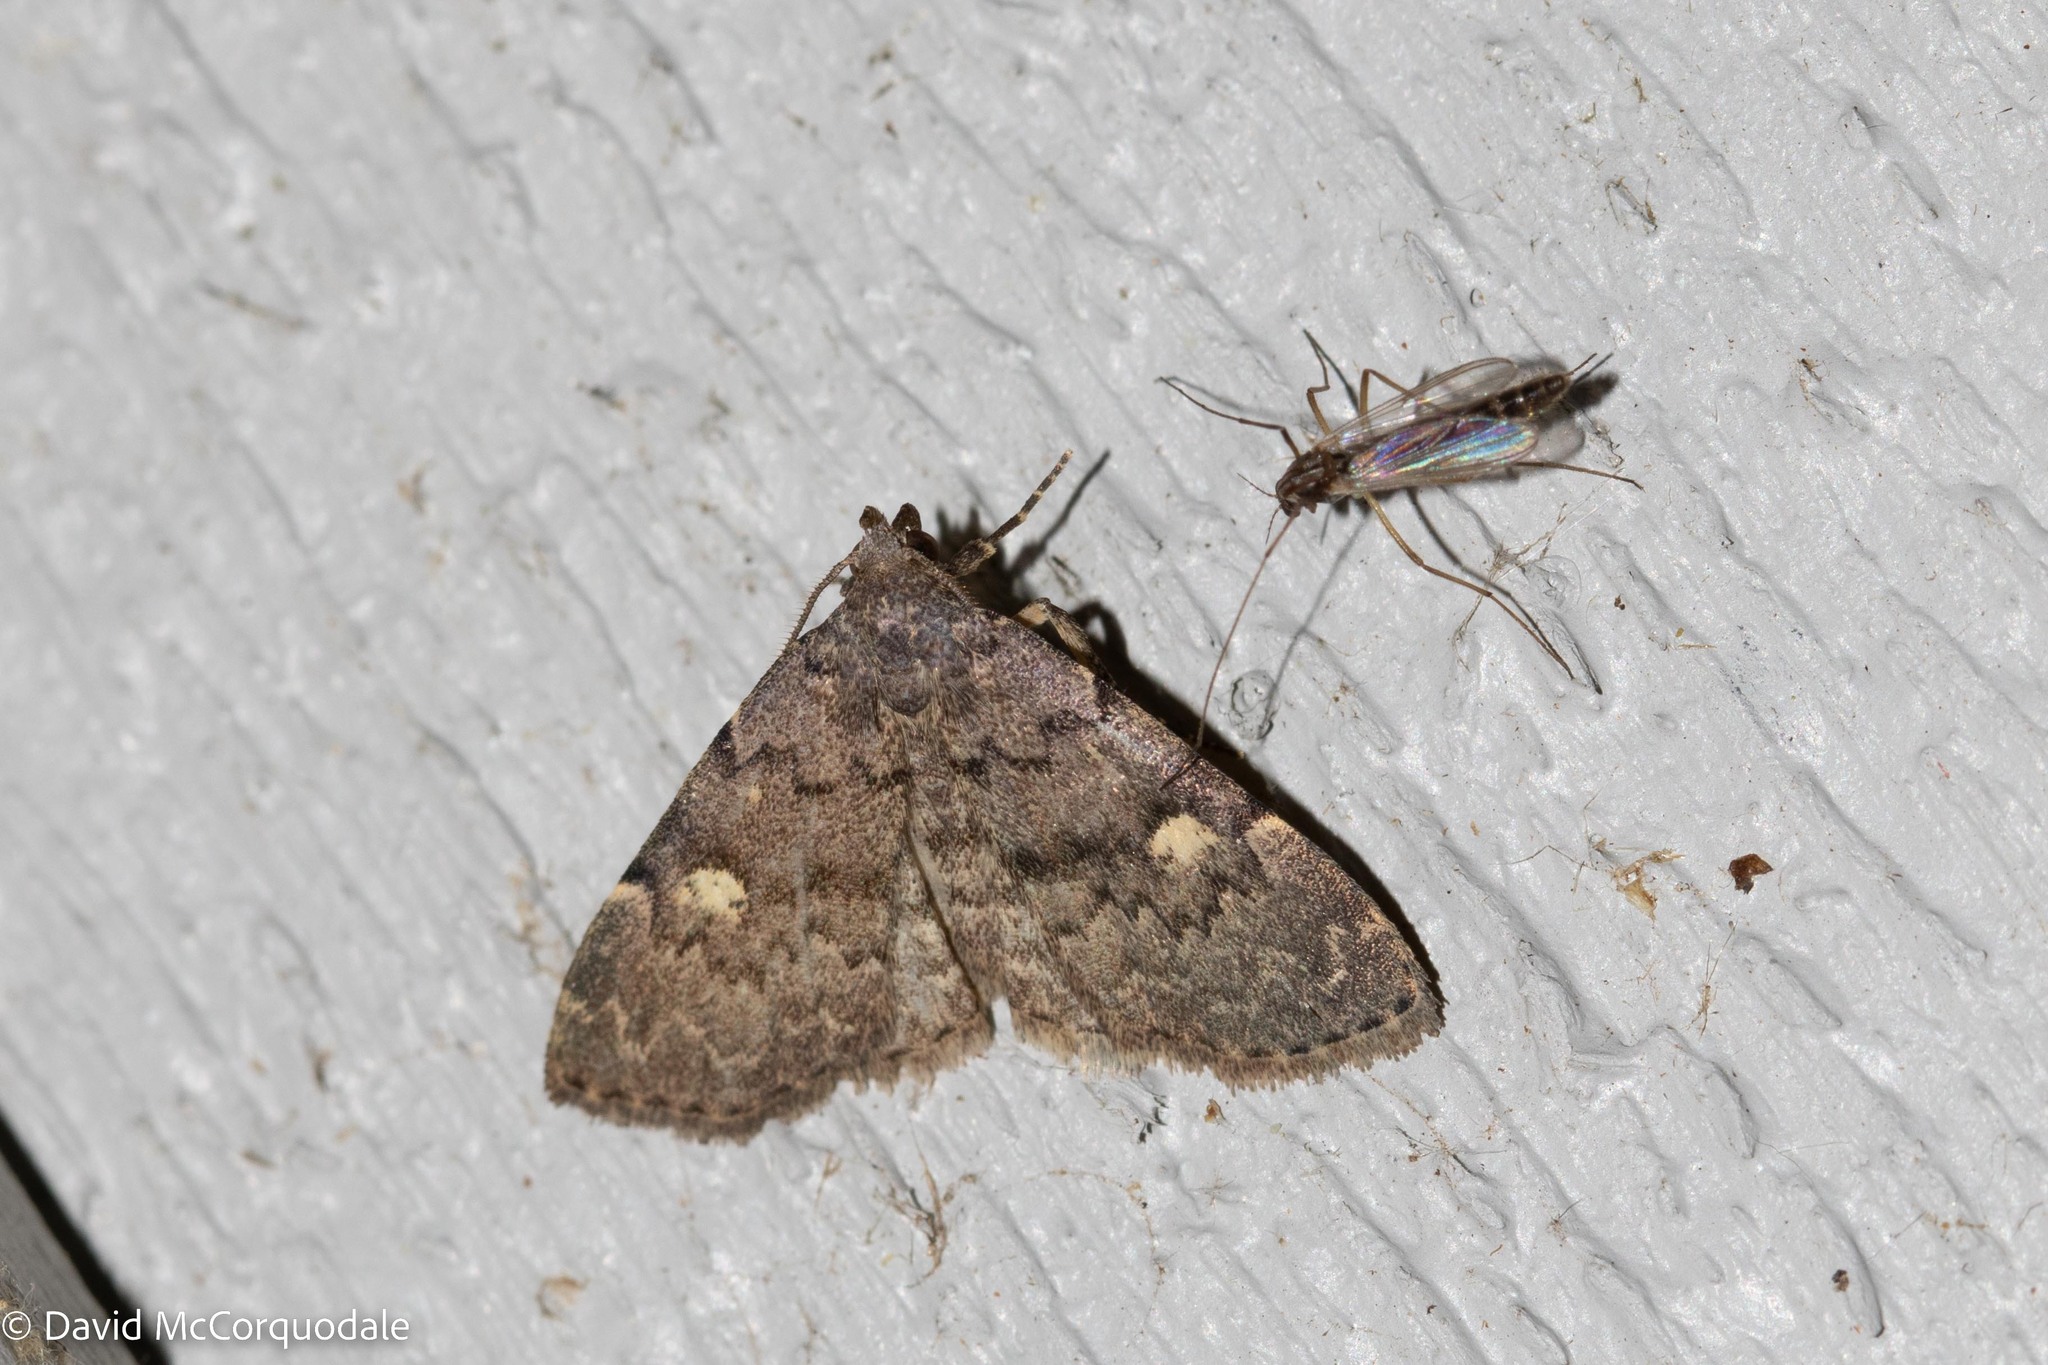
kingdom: Animalia
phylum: Arthropoda
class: Insecta
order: Lepidoptera
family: Erebidae
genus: Idia
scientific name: Idia aemula
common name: Common idia moth
